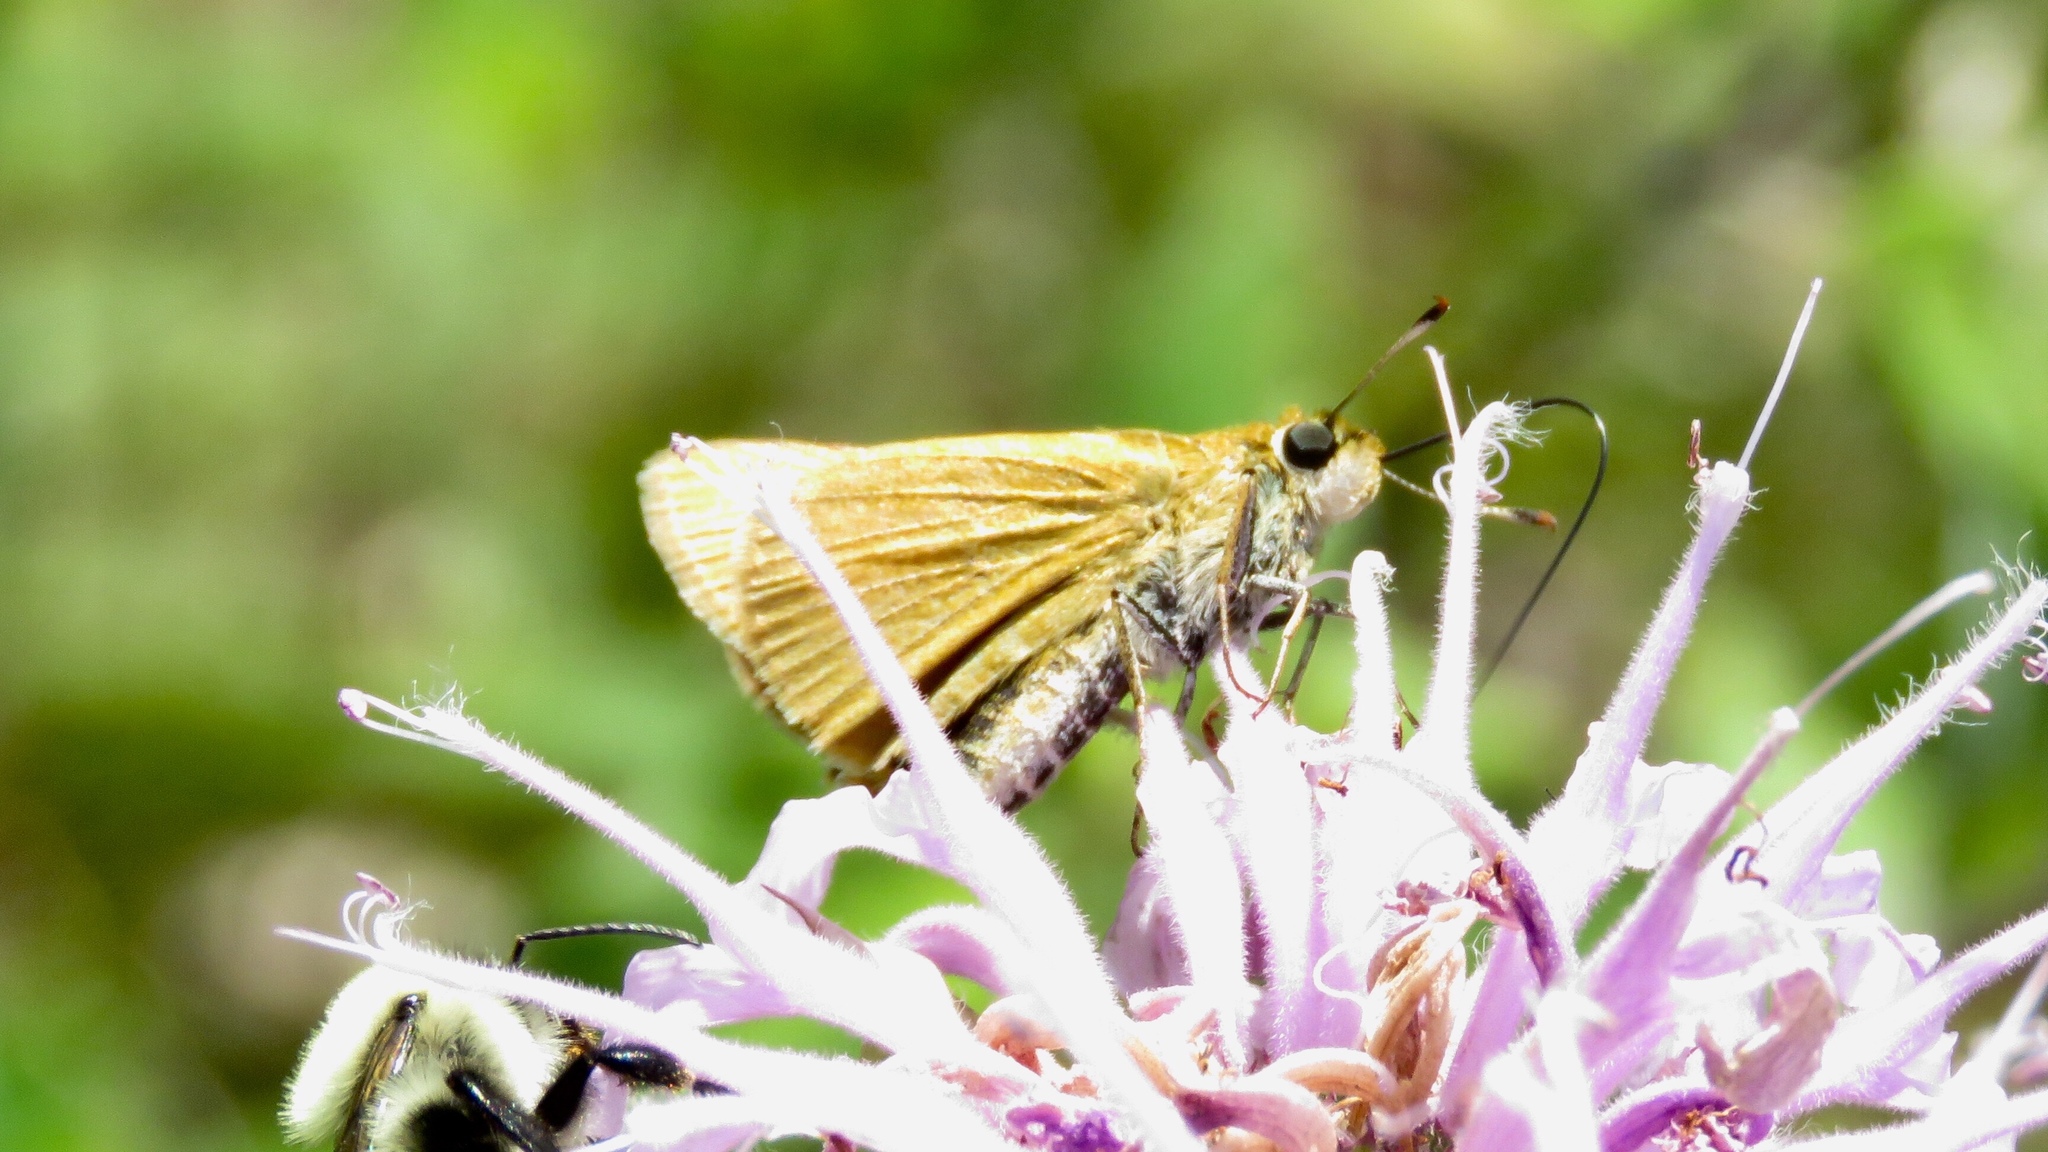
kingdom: Animalia
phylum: Arthropoda
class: Insecta
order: Lepidoptera
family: Hesperiidae
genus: Atrytone
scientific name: Atrytone delaware
